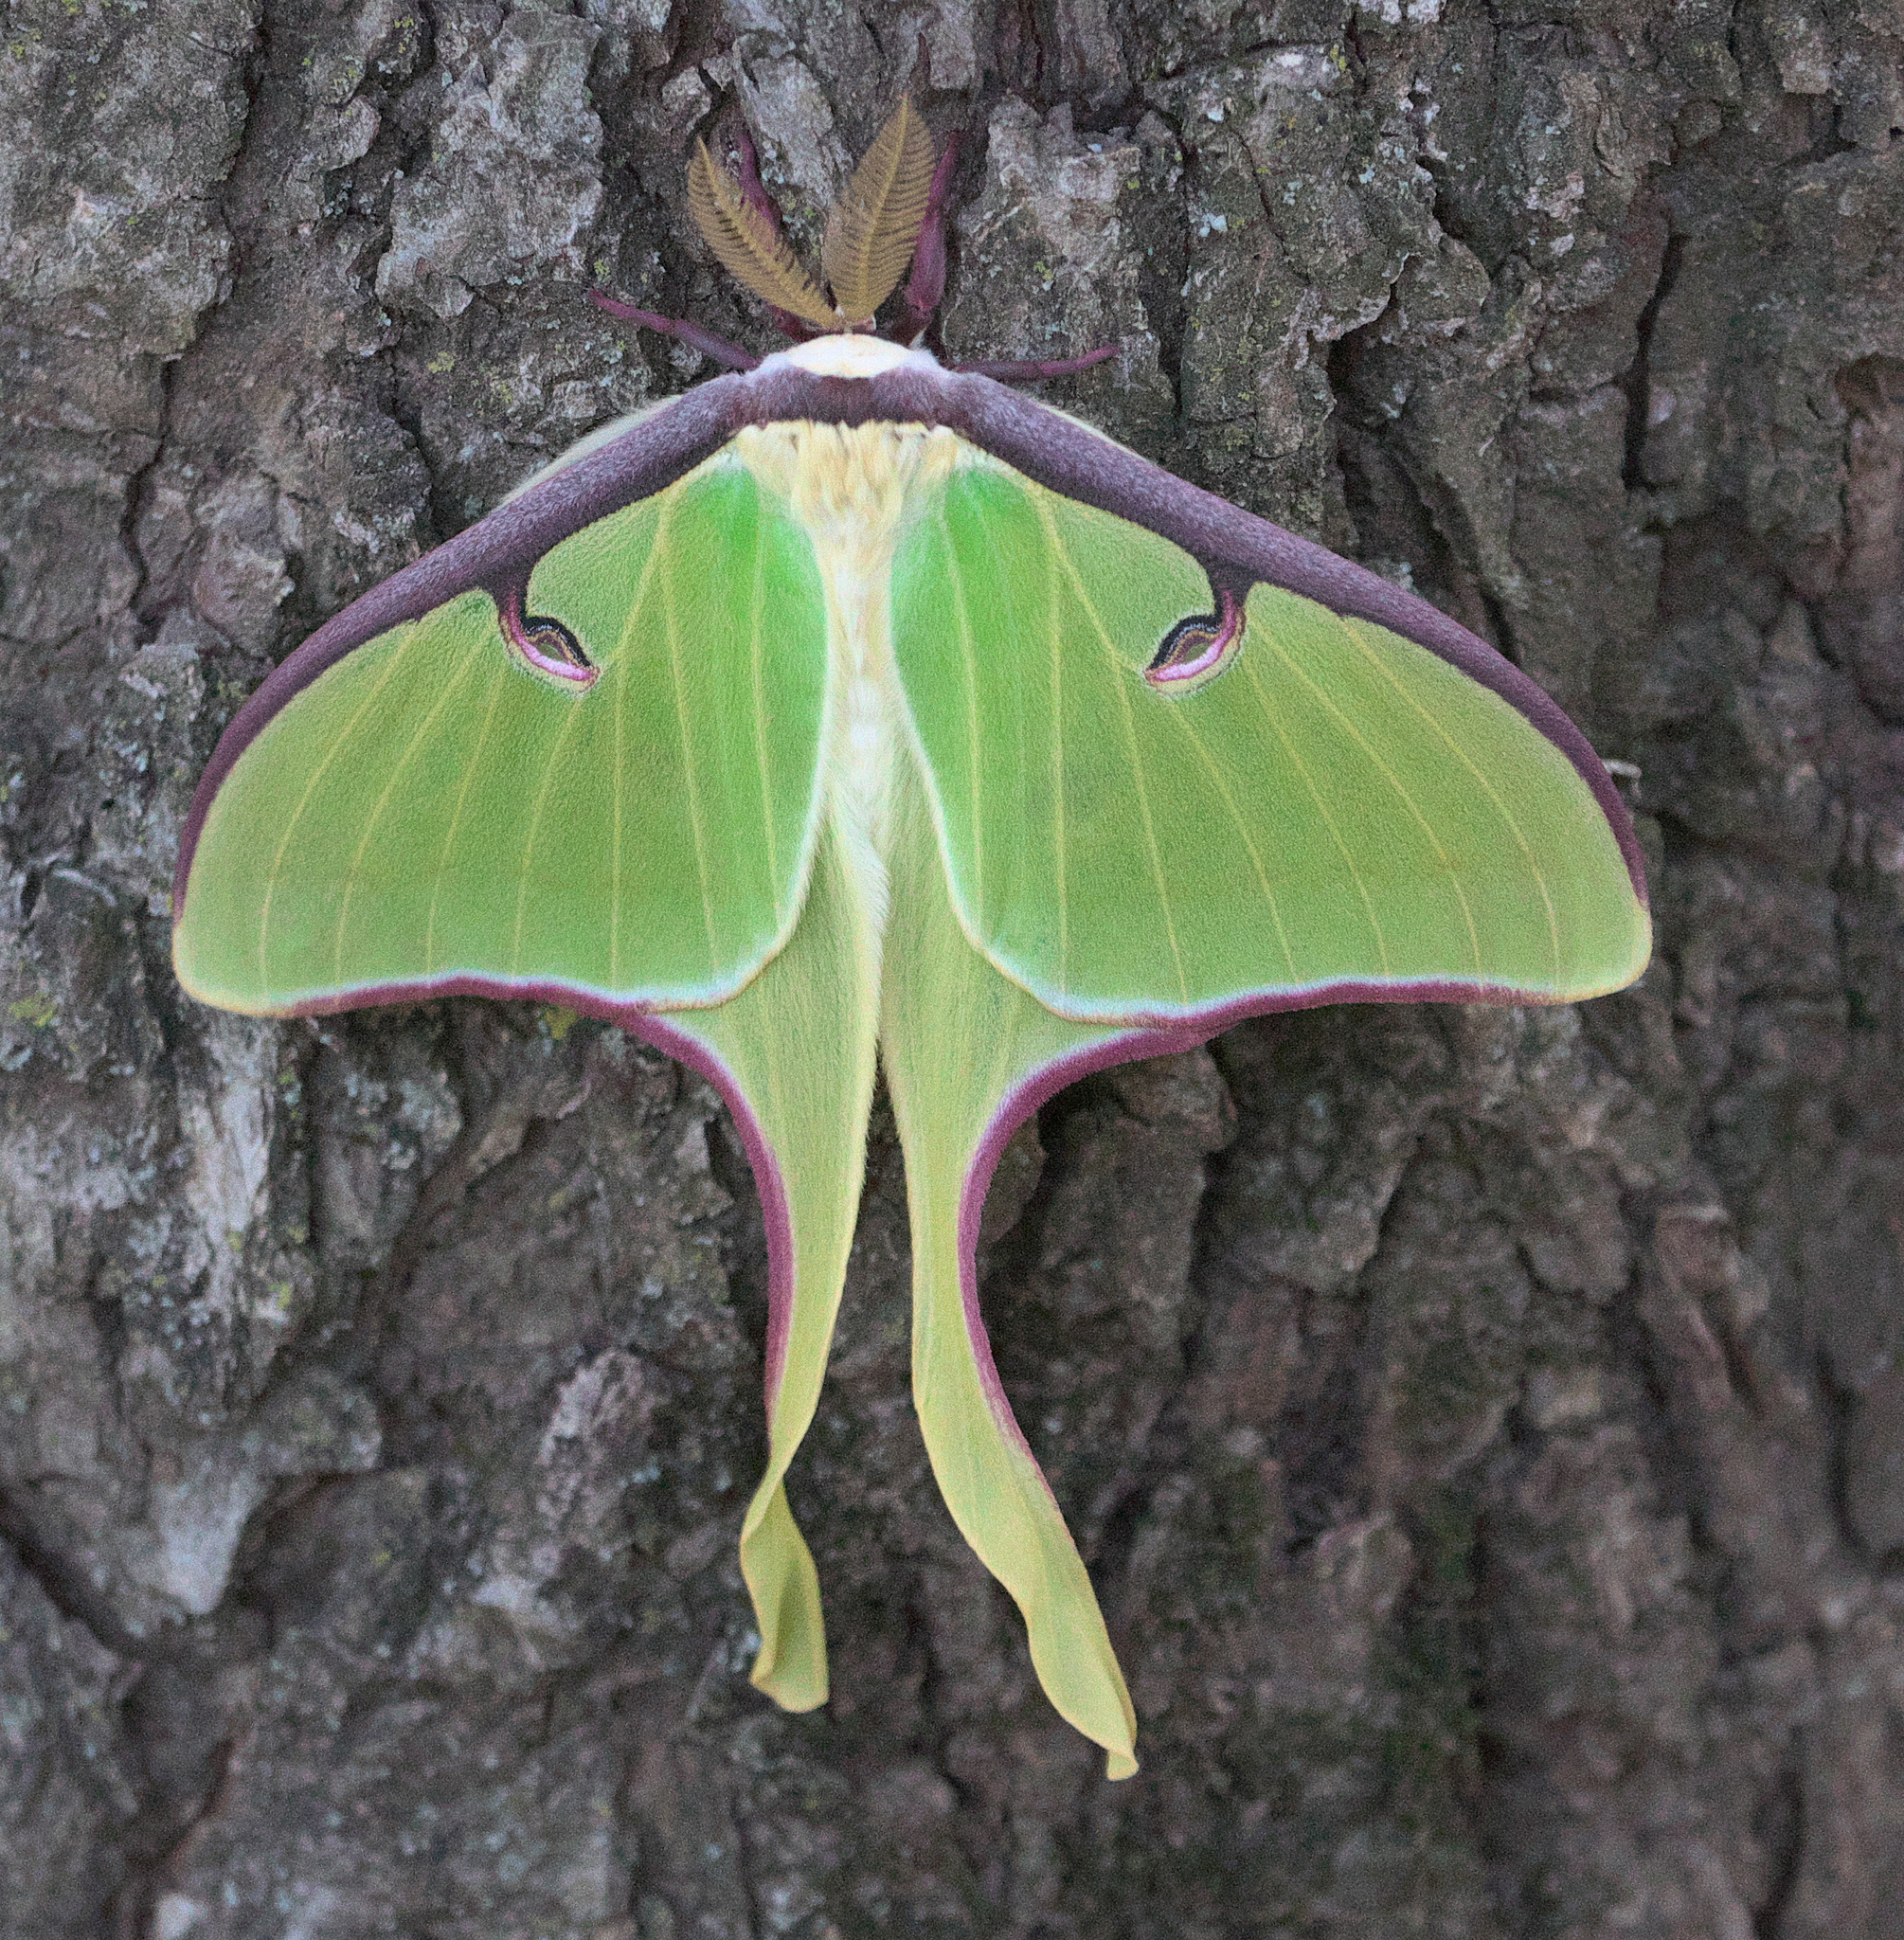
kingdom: Animalia
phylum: Arthropoda
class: Insecta
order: Lepidoptera
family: Saturniidae
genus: Actias
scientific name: Actias luna
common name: Luna moth
